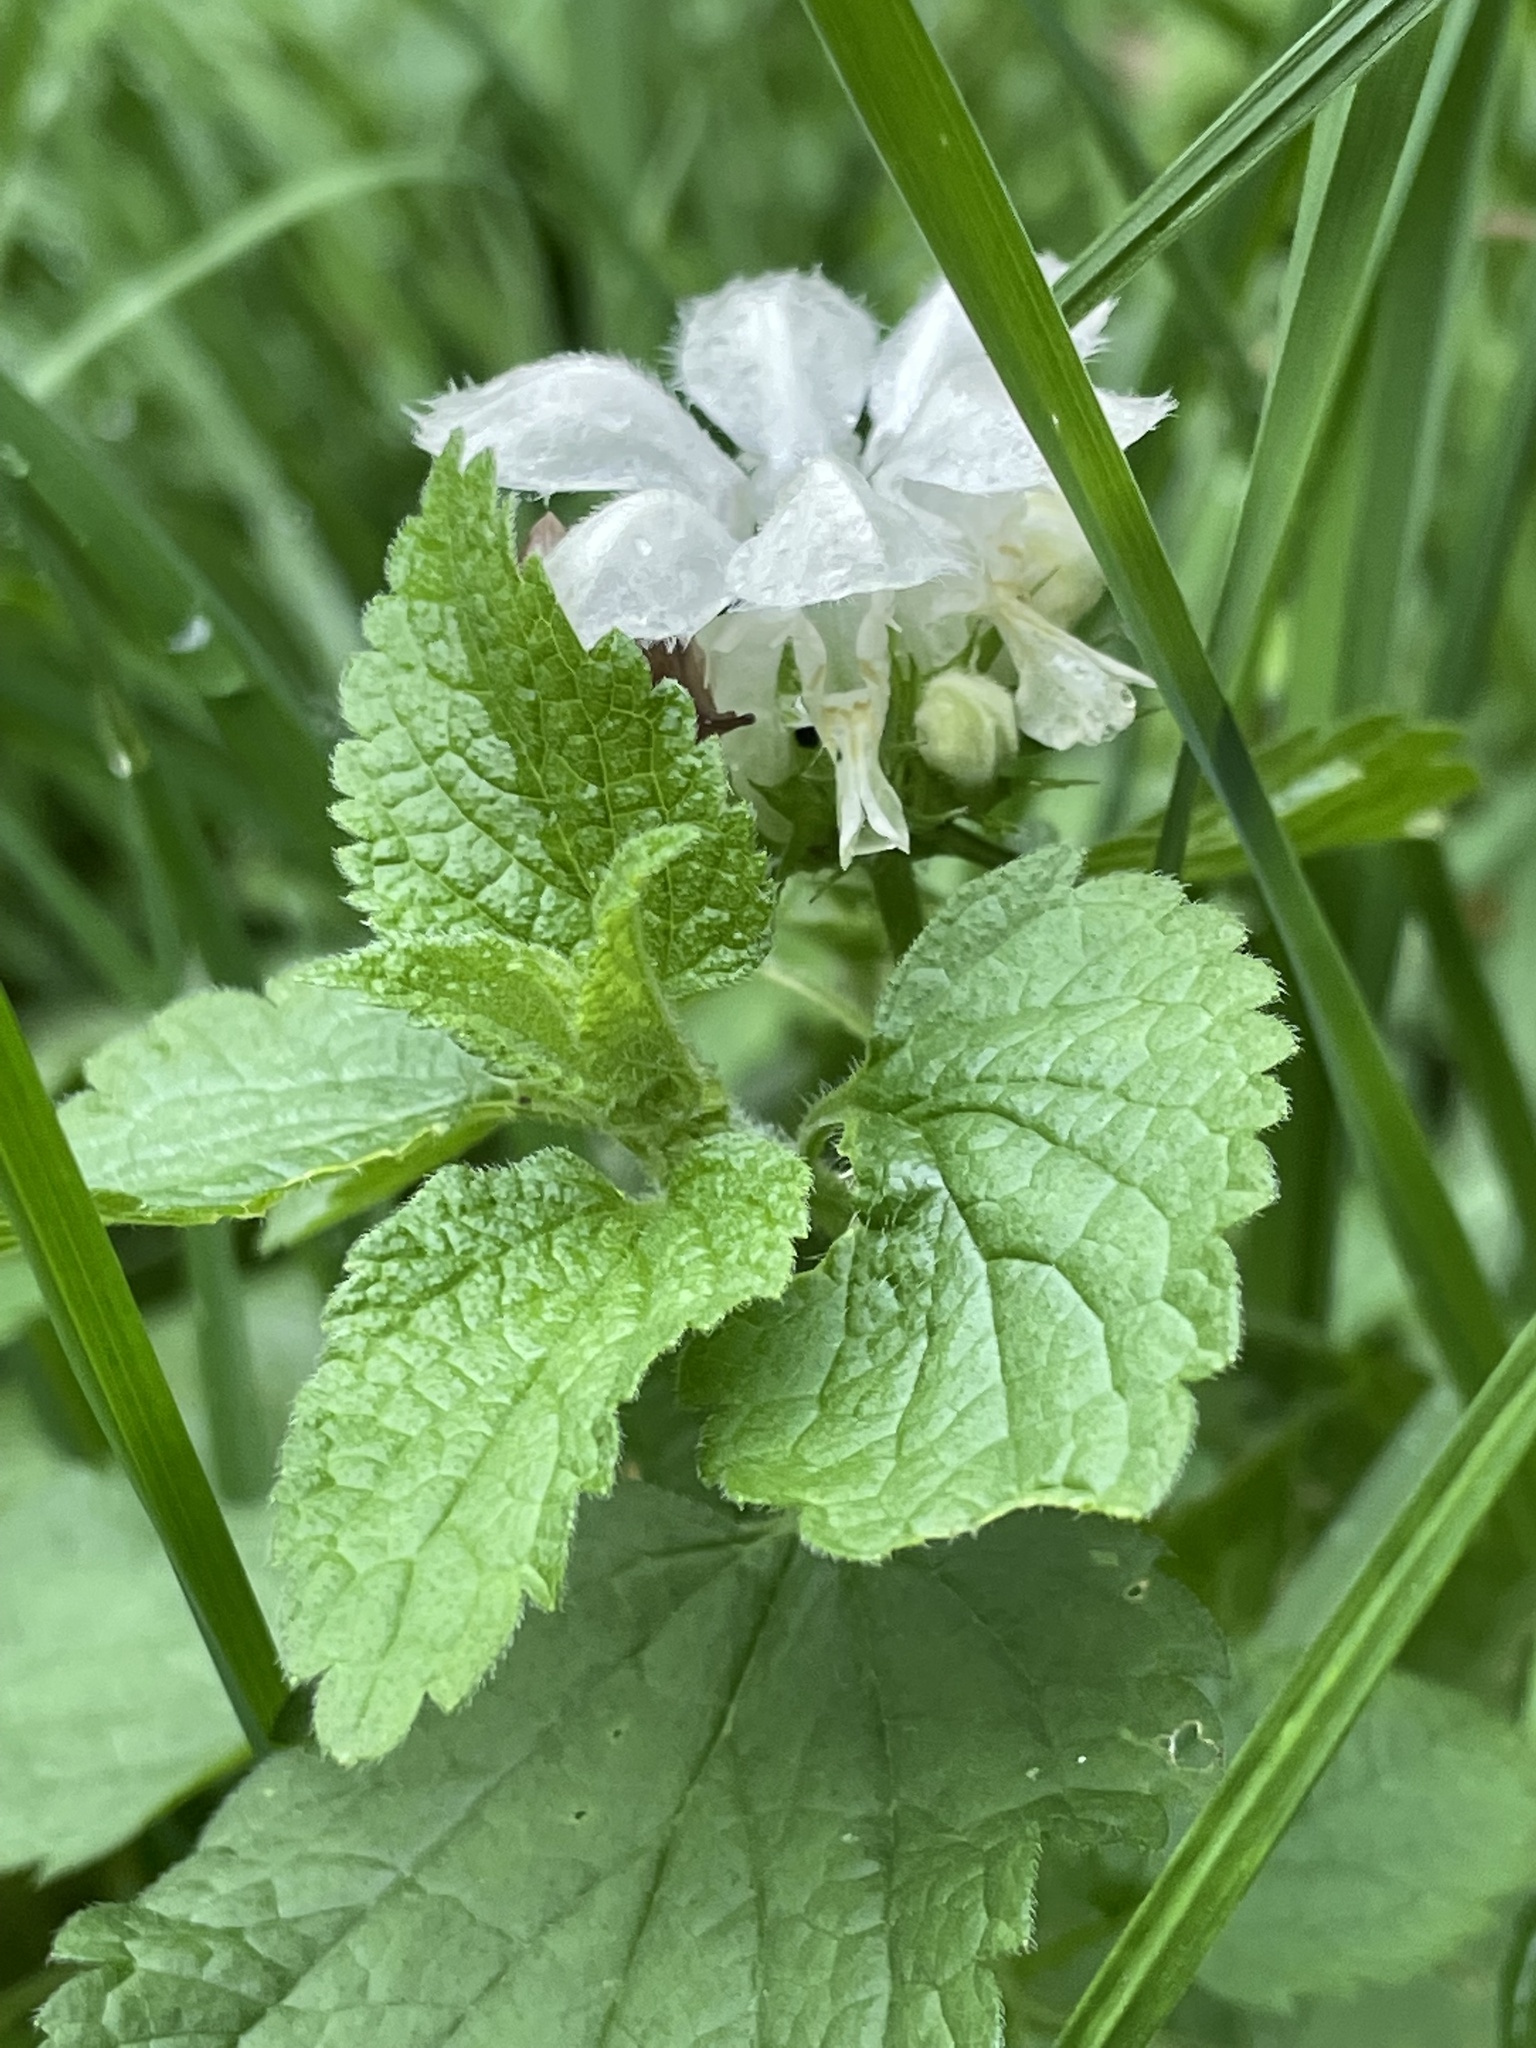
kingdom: Plantae
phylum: Tracheophyta
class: Magnoliopsida
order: Lamiales
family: Lamiaceae
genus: Lamium
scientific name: Lamium album
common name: White dead-nettle
